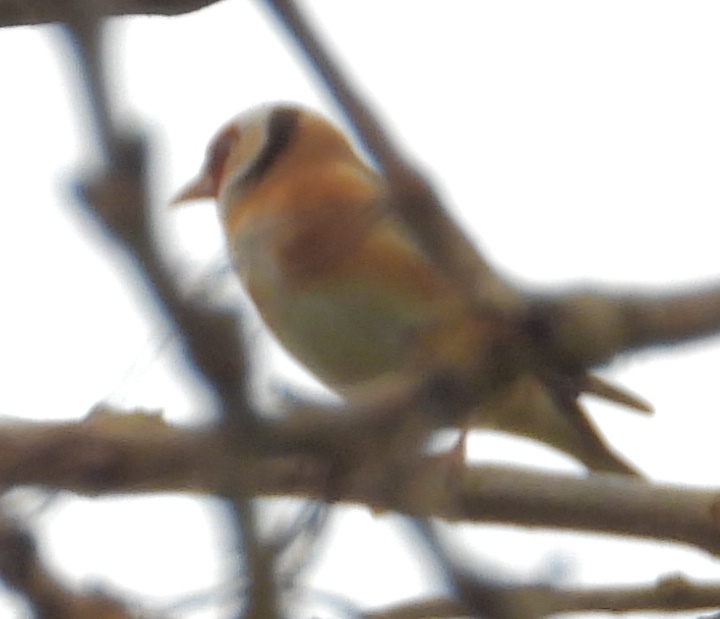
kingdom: Animalia
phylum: Chordata
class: Aves
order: Passeriformes
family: Fringillidae
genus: Carduelis
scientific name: Carduelis carduelis
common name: European goldfinch
